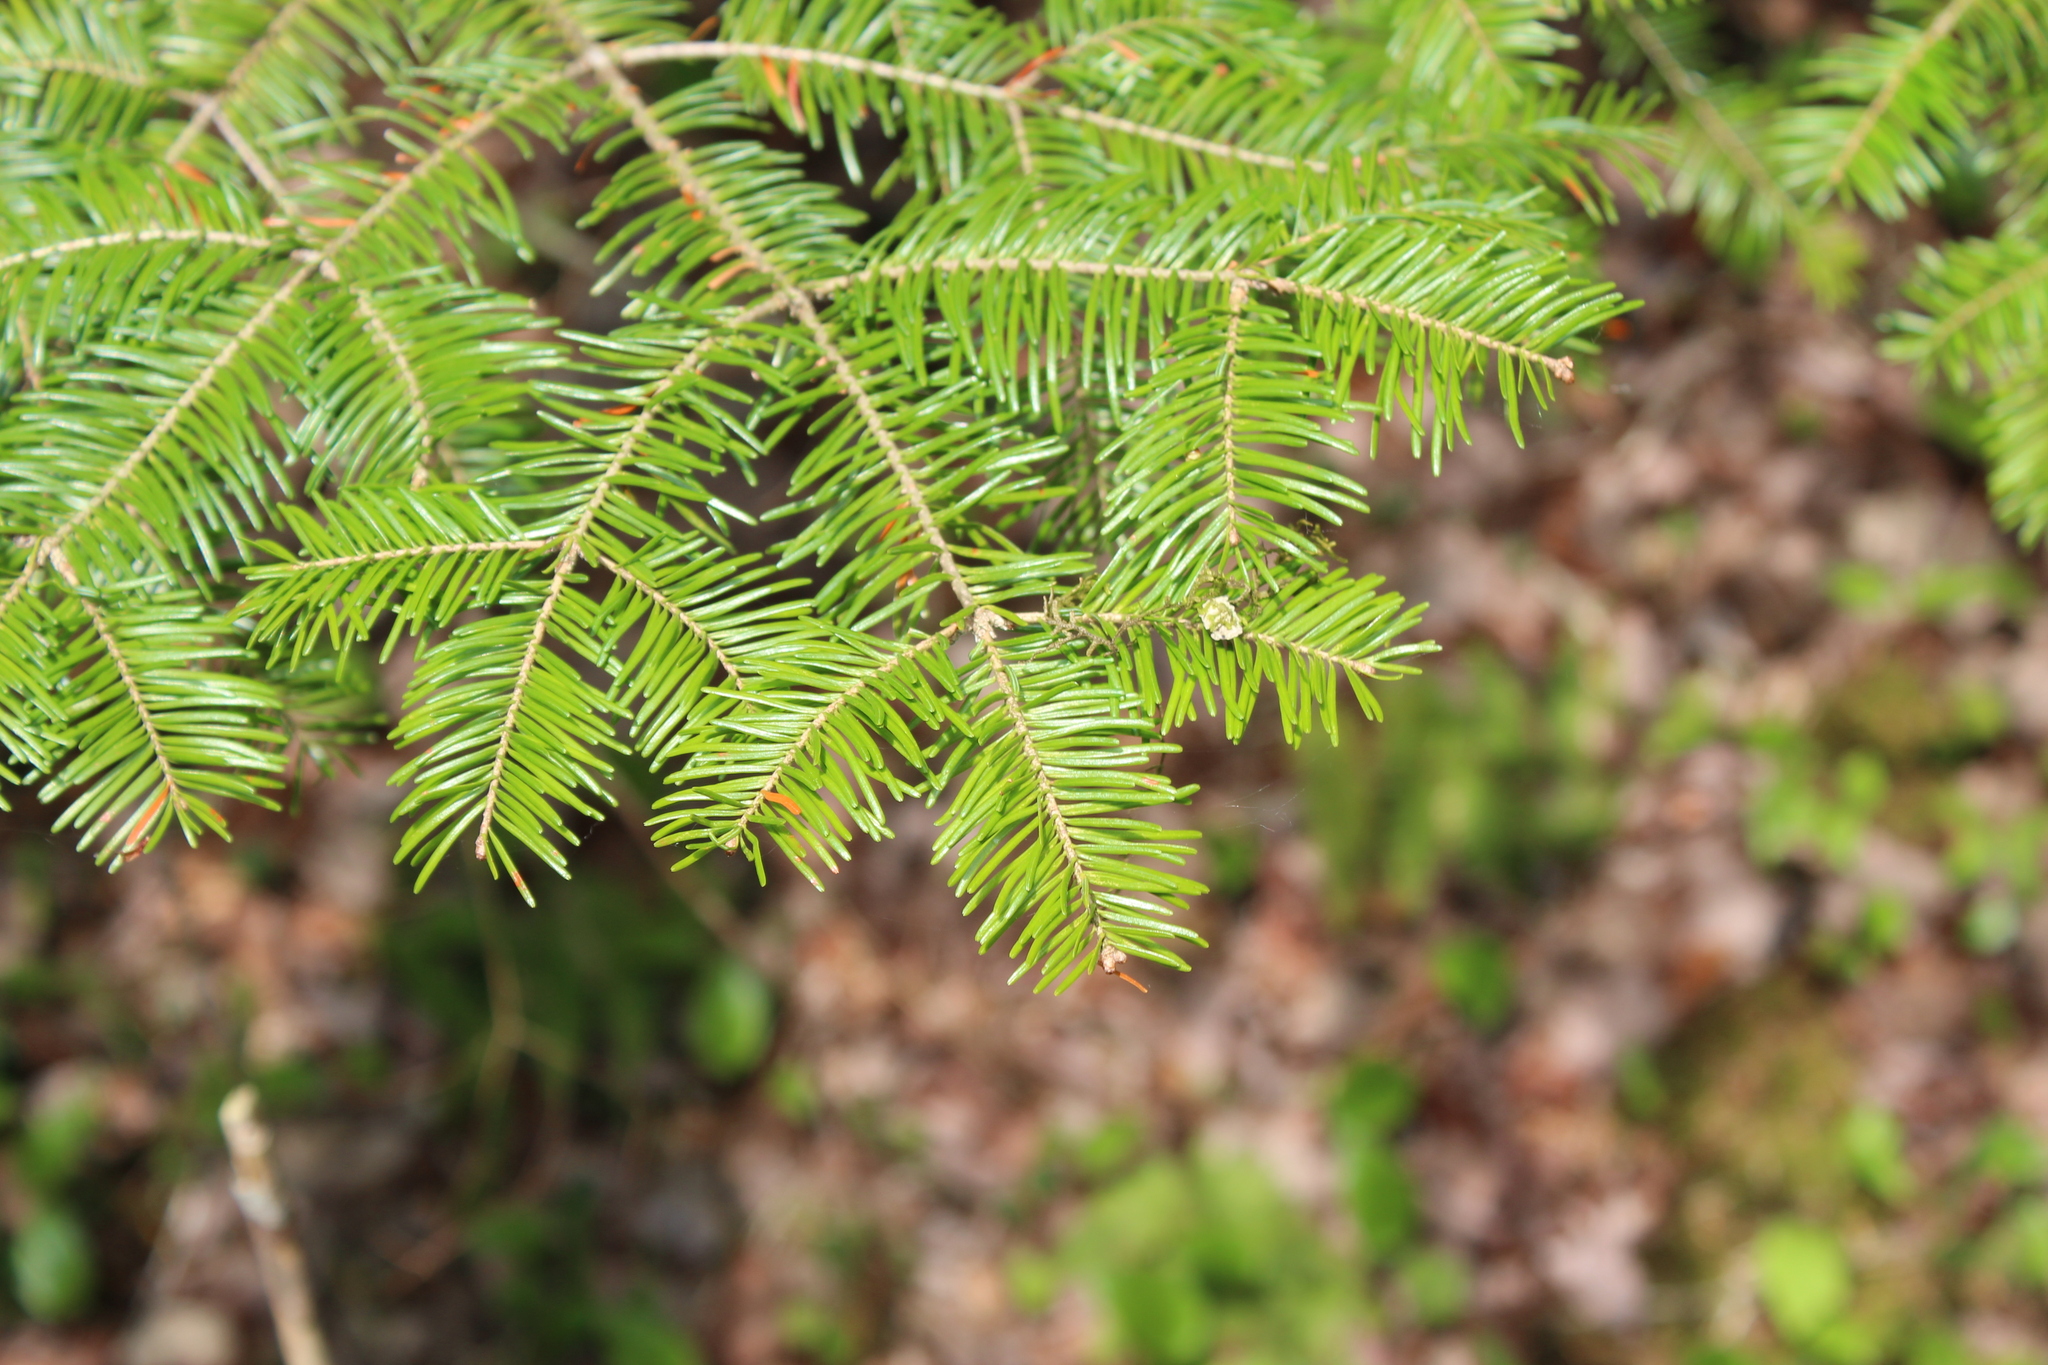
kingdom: Plantae
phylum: Tracheophyta
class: Pinopsida
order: Pinales
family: Pinaceae
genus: Abies
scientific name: Abies balsamea
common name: Balsam fir
